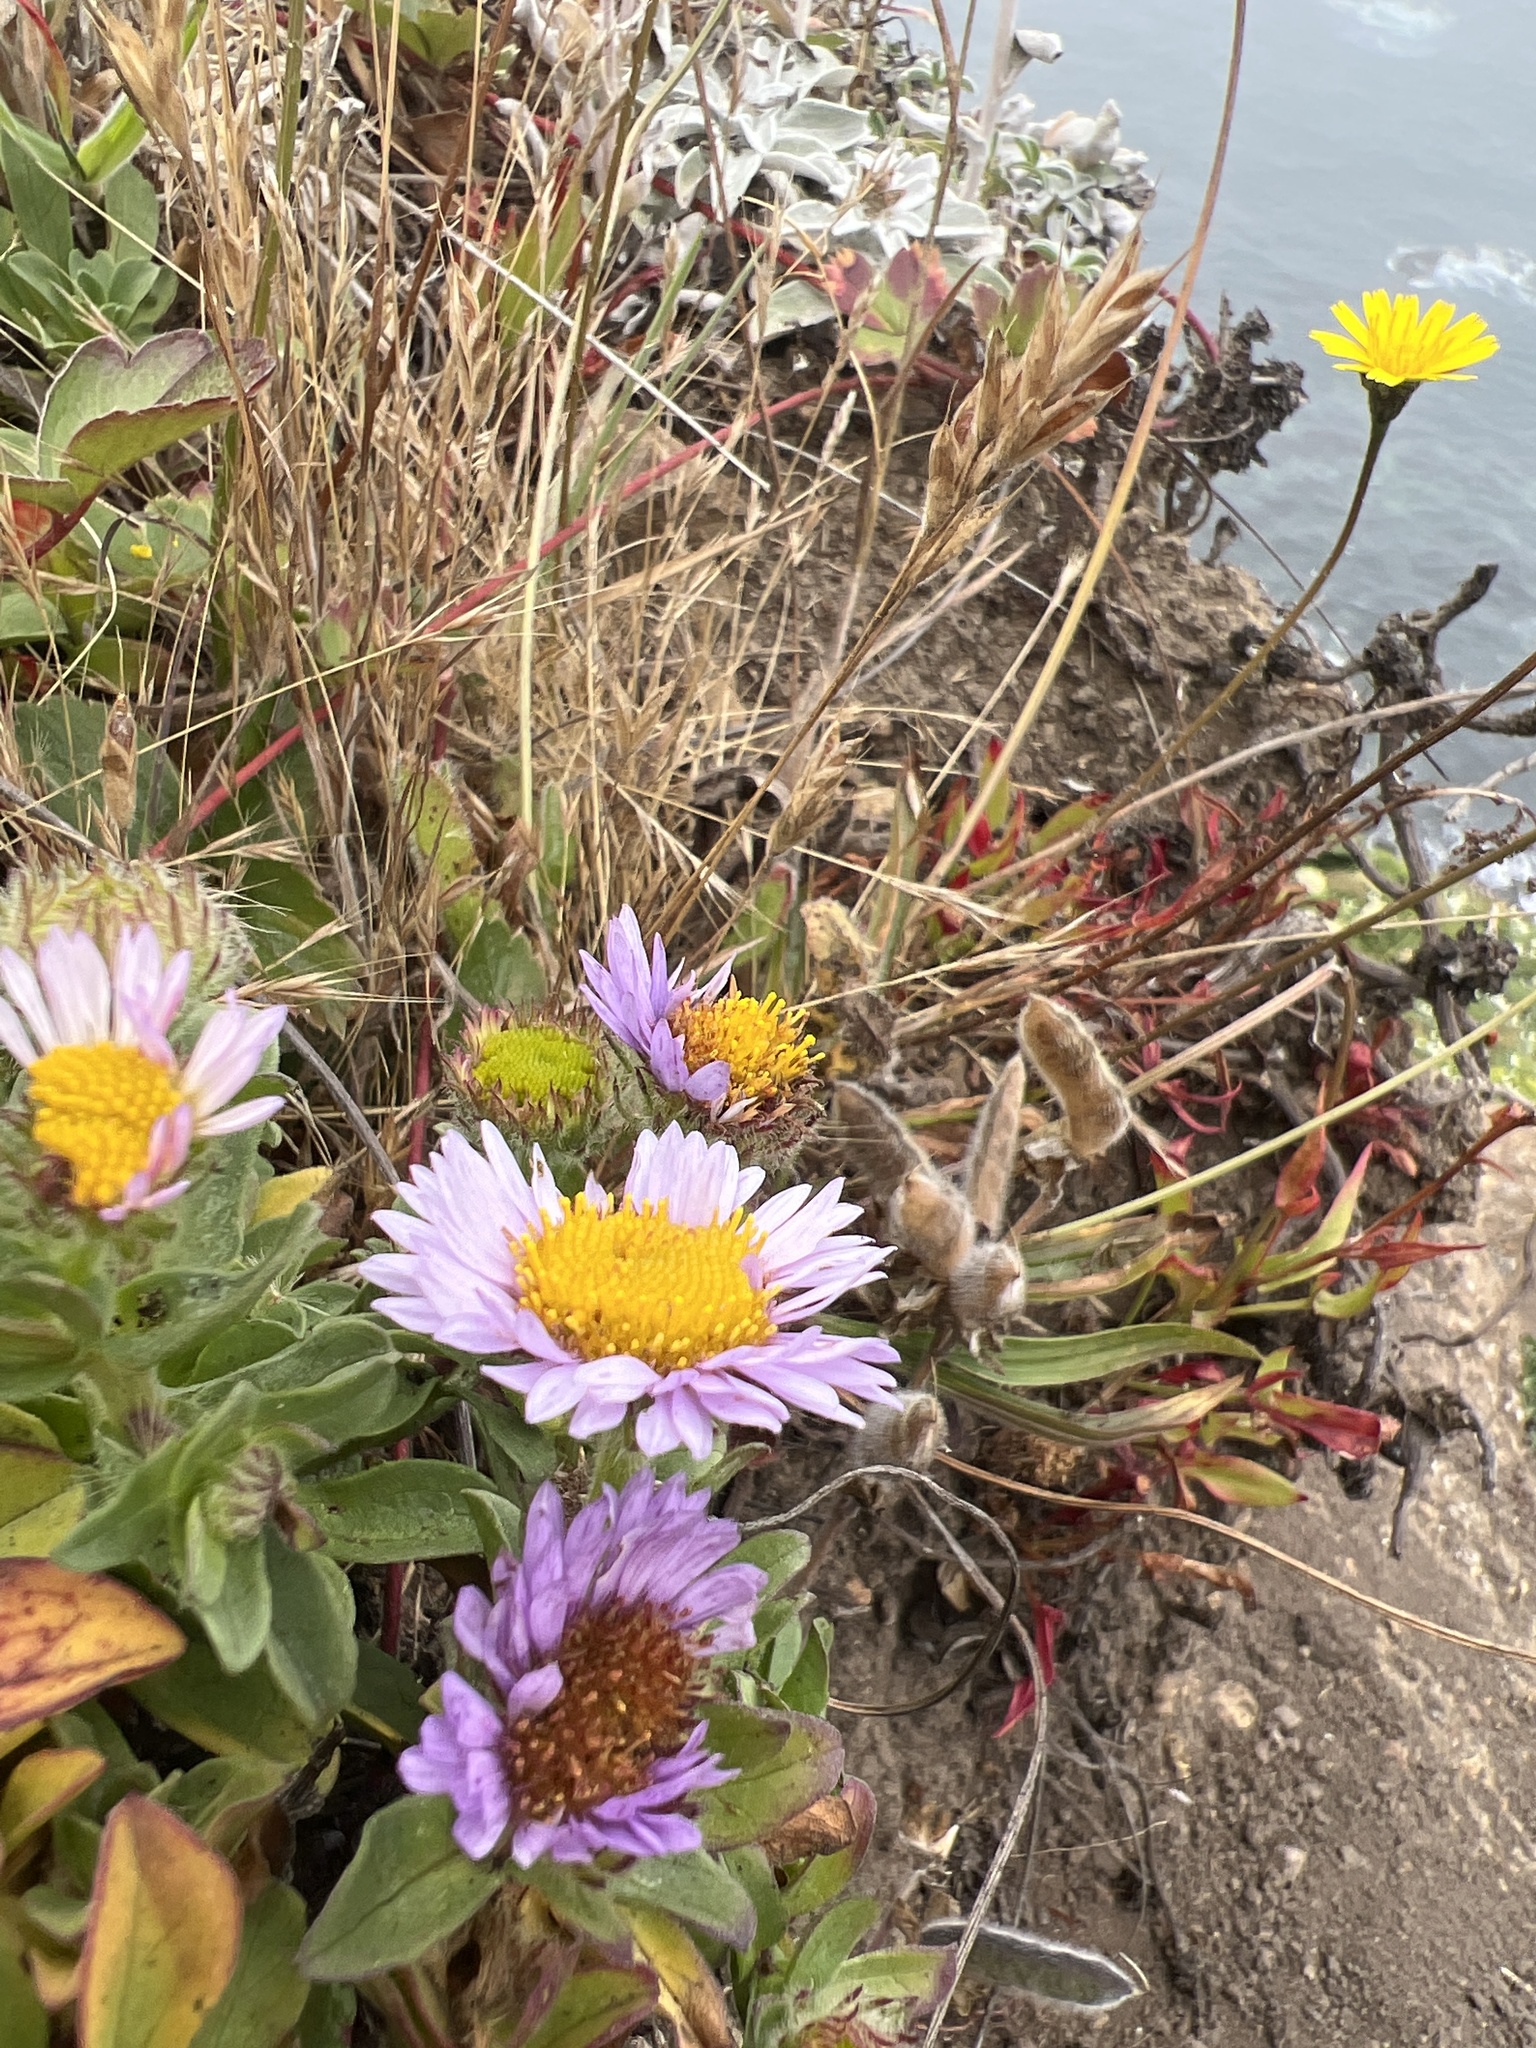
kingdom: Plantae
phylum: Tracheophyta
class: Magnoliopsida
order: Asterales
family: Asteraceae
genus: Erigeron
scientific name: Erigeron glaucus
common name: Seaside daisy
